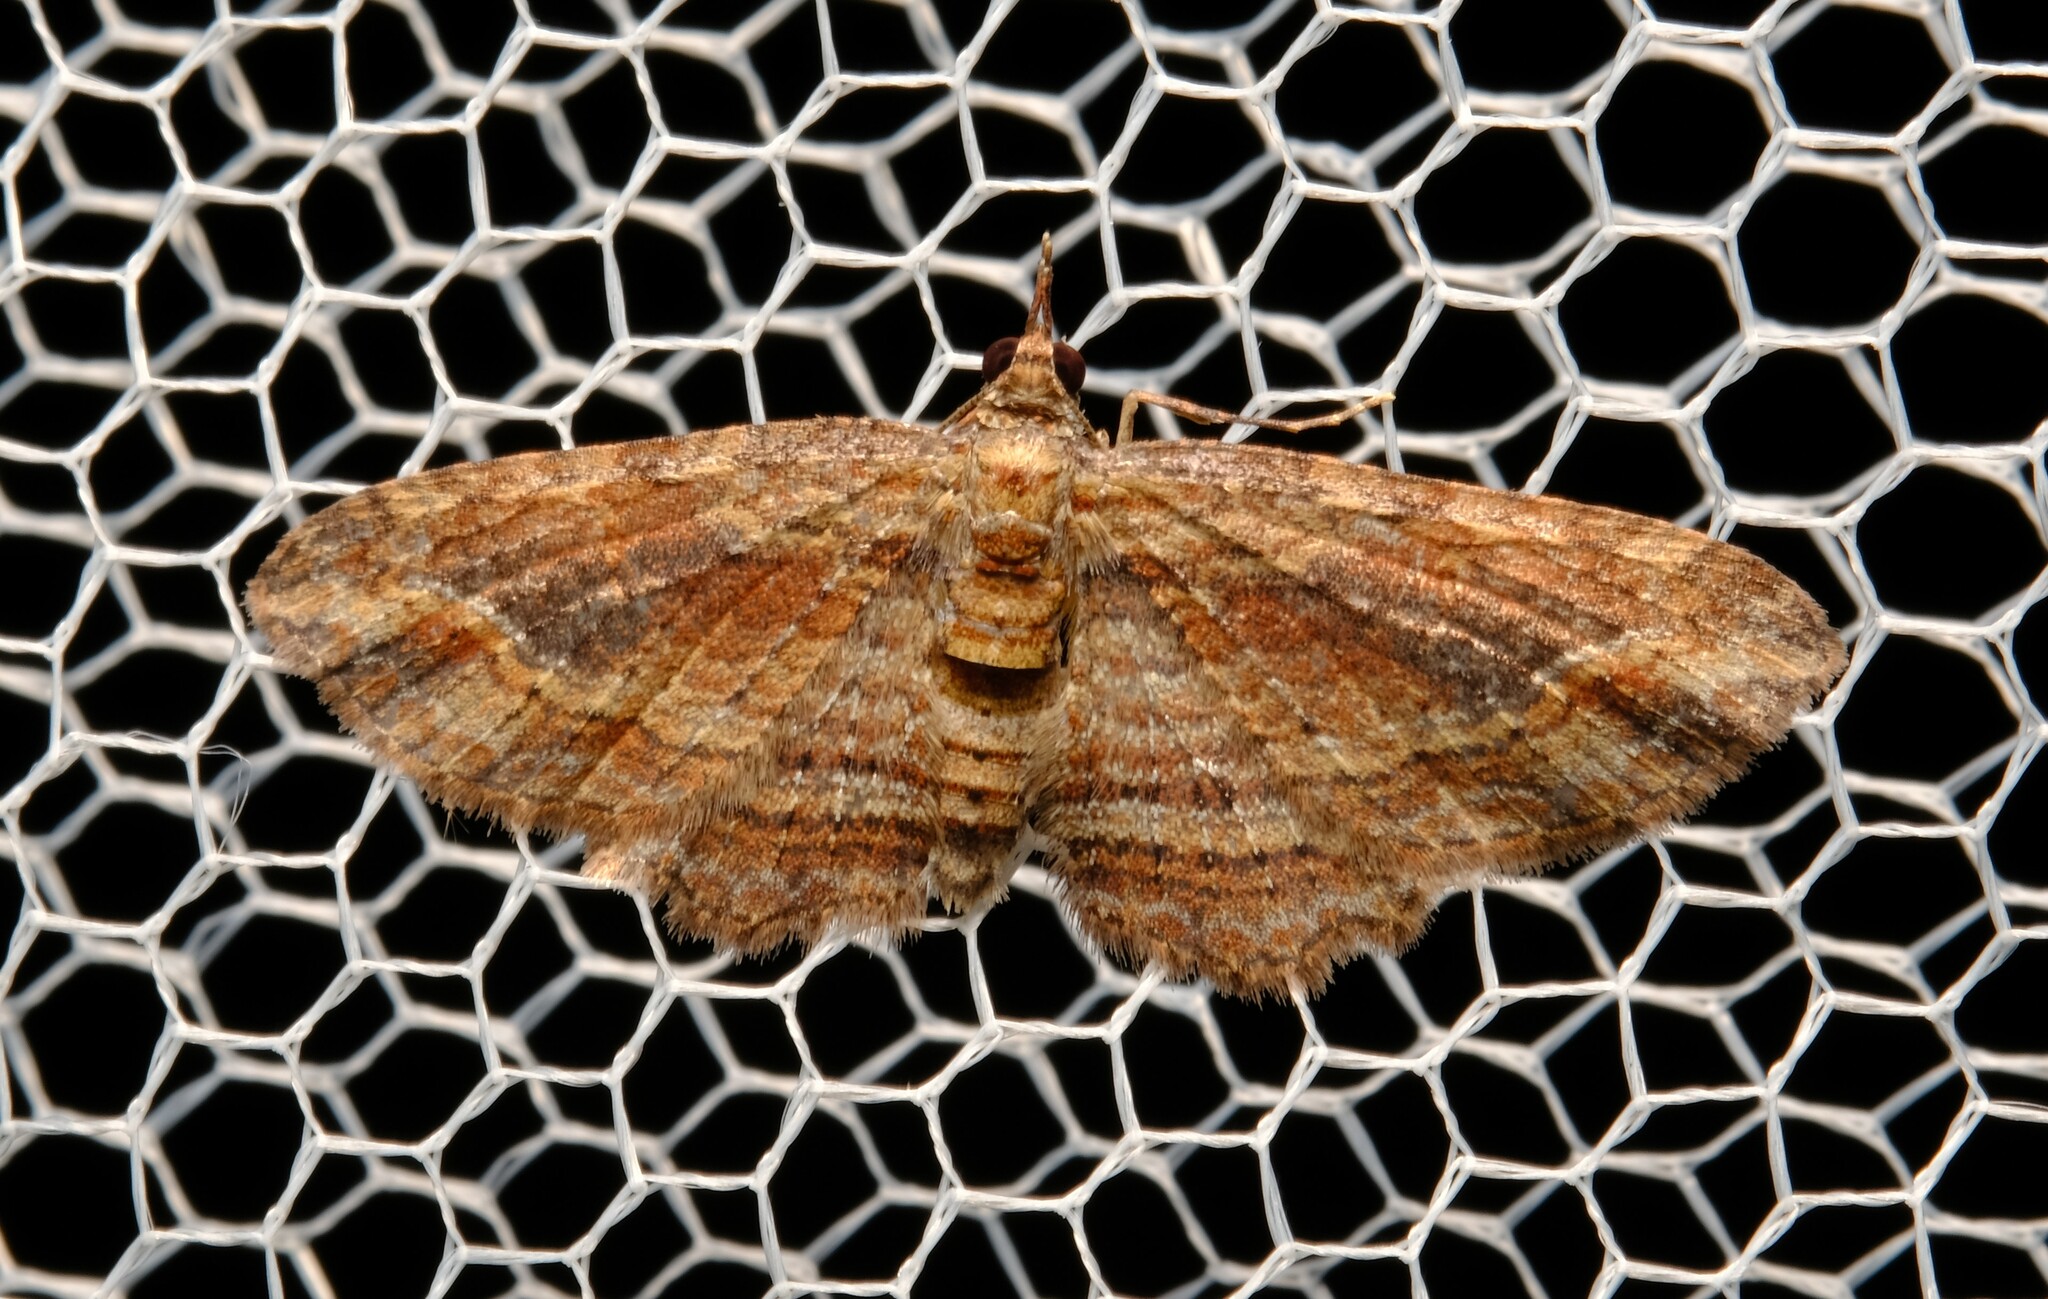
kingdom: Animalia
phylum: Arthropoda
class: Insecta
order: Lepidoptera
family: Geometridae
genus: Chloroclystis
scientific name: Chloroclystis filata
